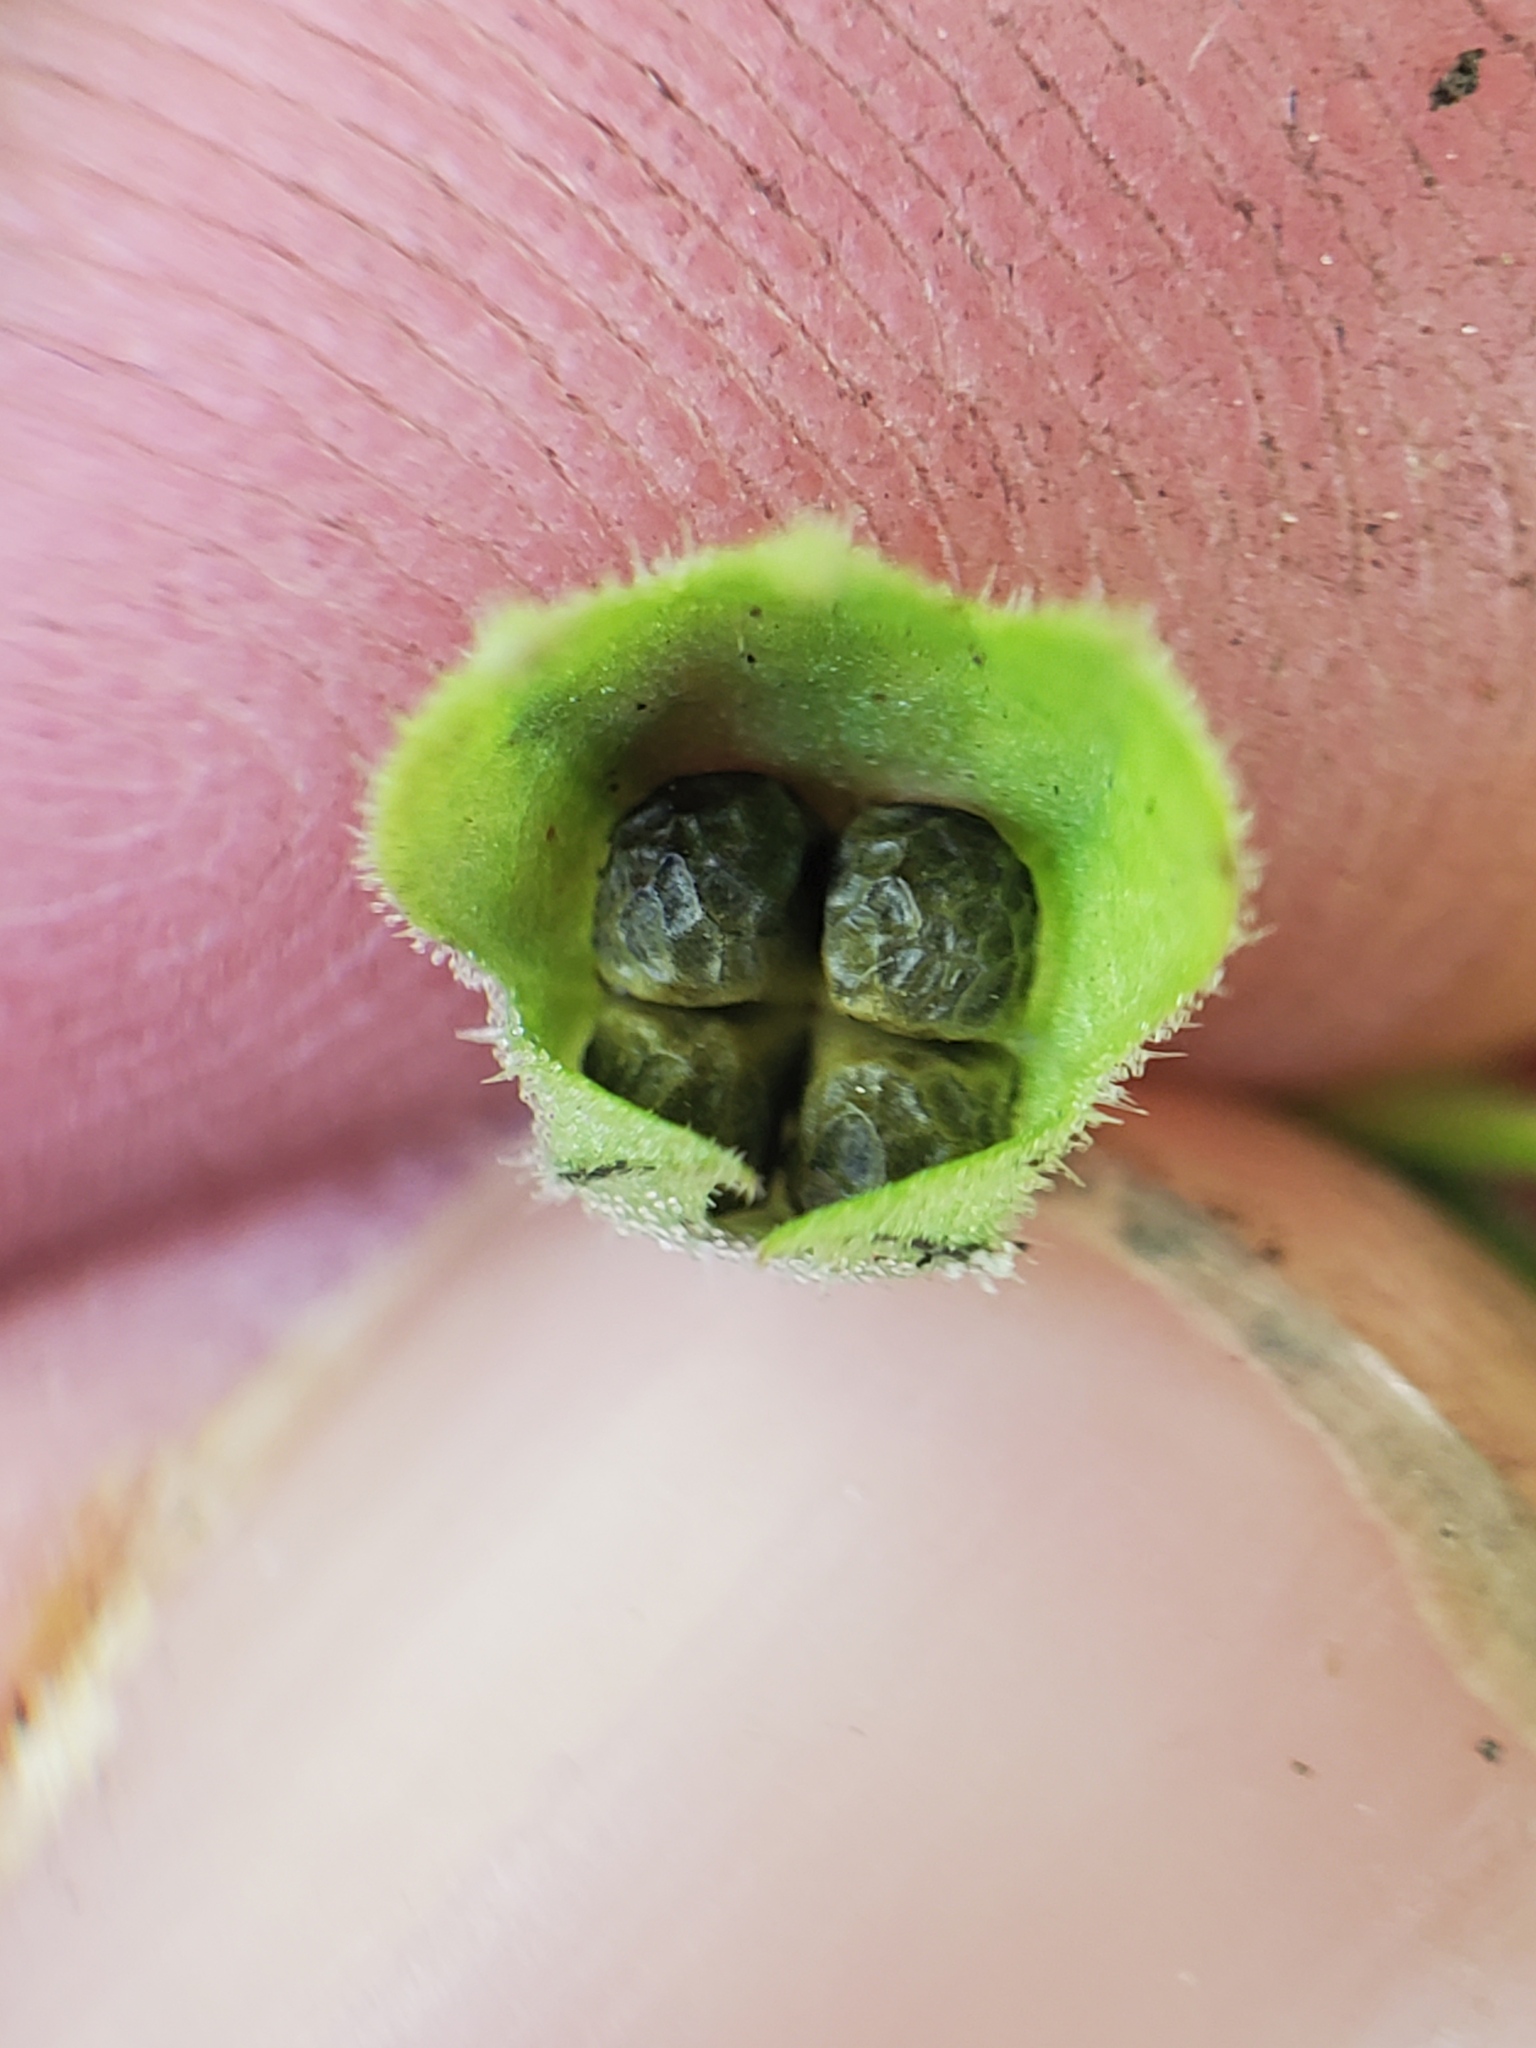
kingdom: Plantae
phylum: Tracheophyta
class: Magnoliopsida
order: Lamiales
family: Lamiaceae
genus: Trichostema
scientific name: Trichostema dichotomum
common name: Bastard pennyroyal
